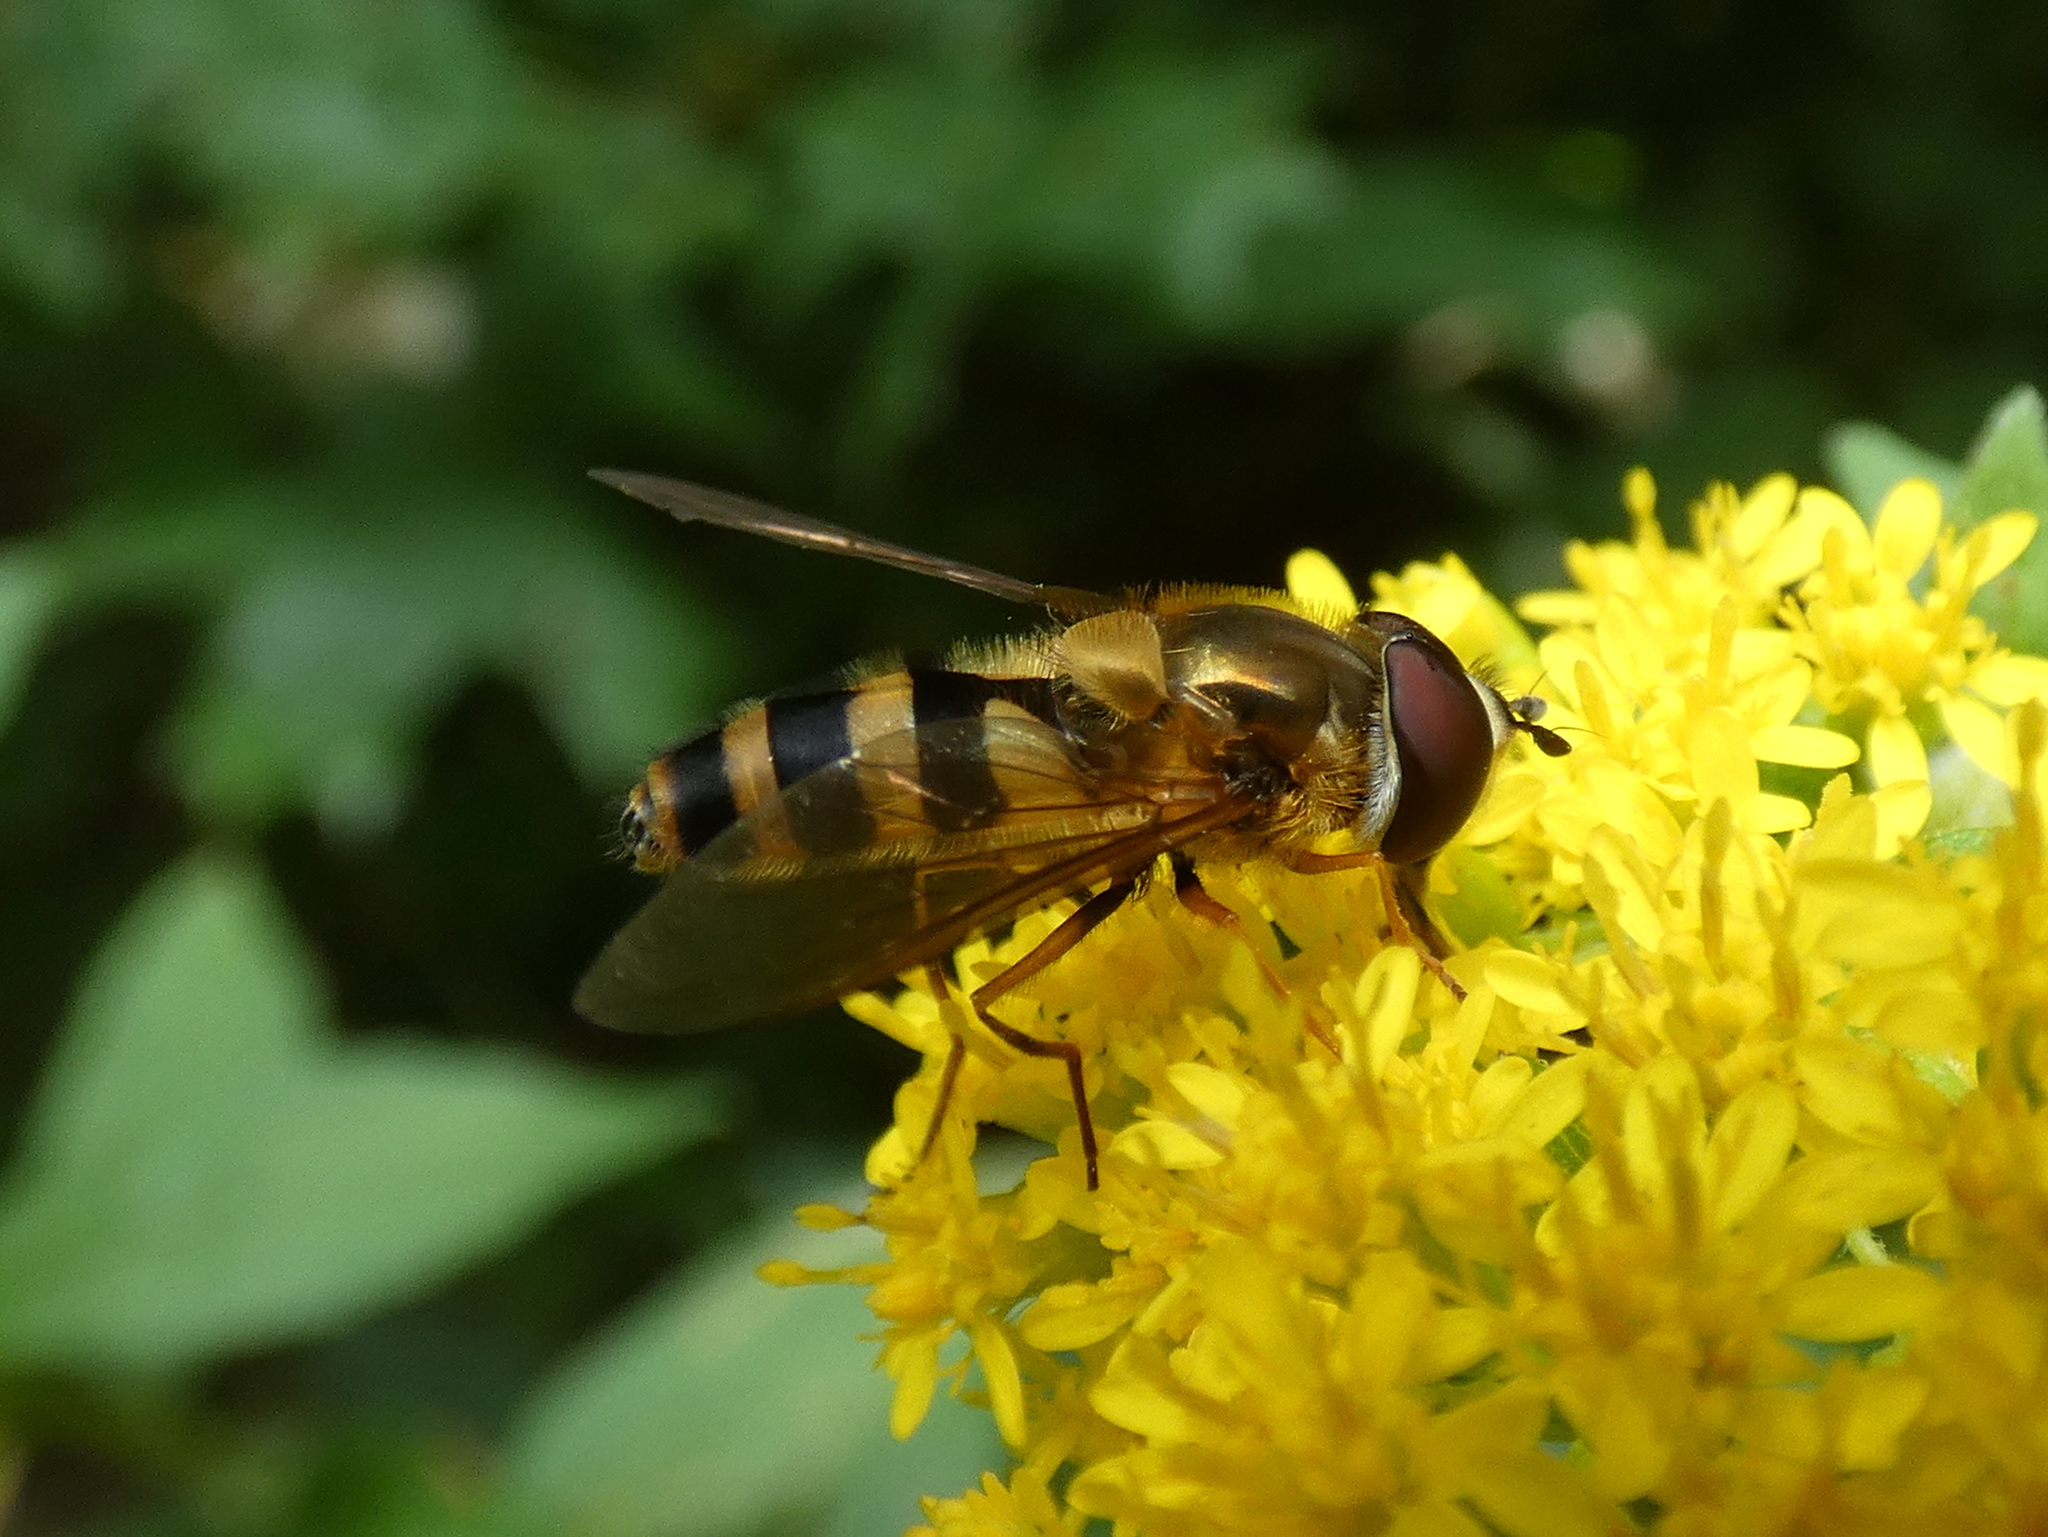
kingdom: Animalia
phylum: Arthropoda
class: Insecta
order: Diptera
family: Syrphidae
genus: Epistrophe
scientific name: Epistrophe grossulariae
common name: Black-horned smoothtail
